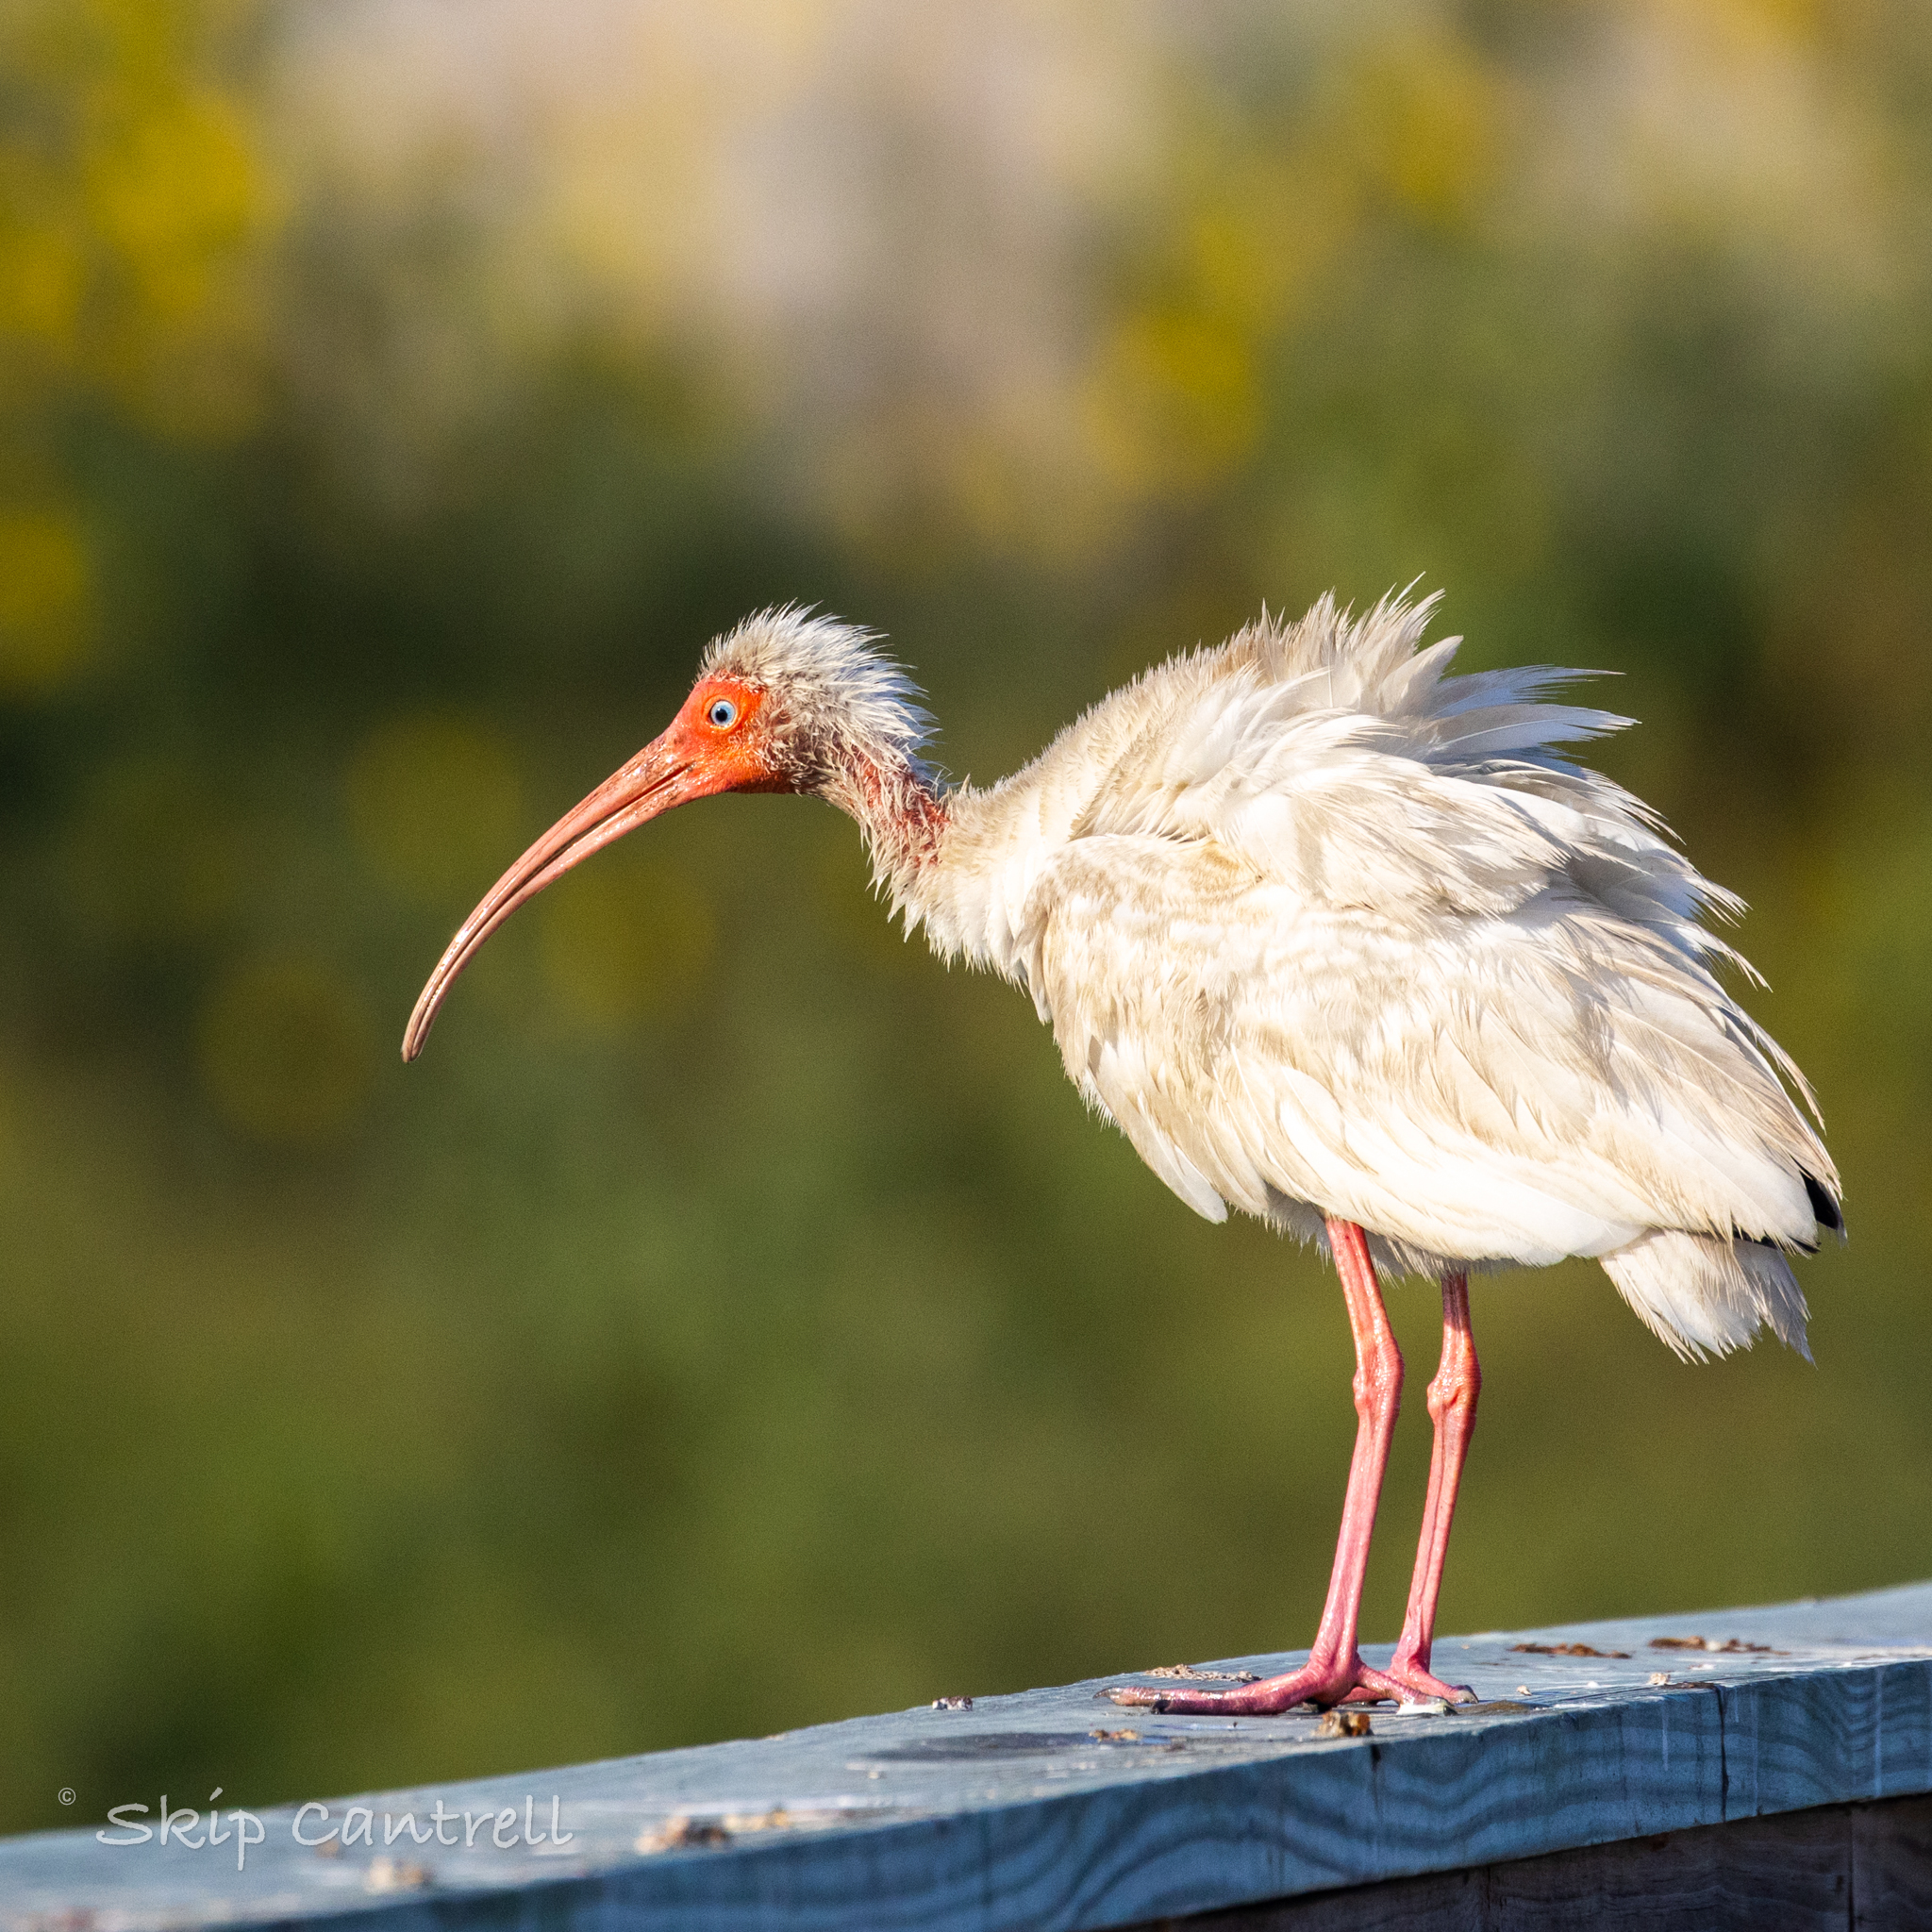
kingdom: Animalia
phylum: Chordata
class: Aves
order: Pelecaniformes
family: Threskiornithidae
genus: Eudocimus
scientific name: Eudocimus albus
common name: White ibis
